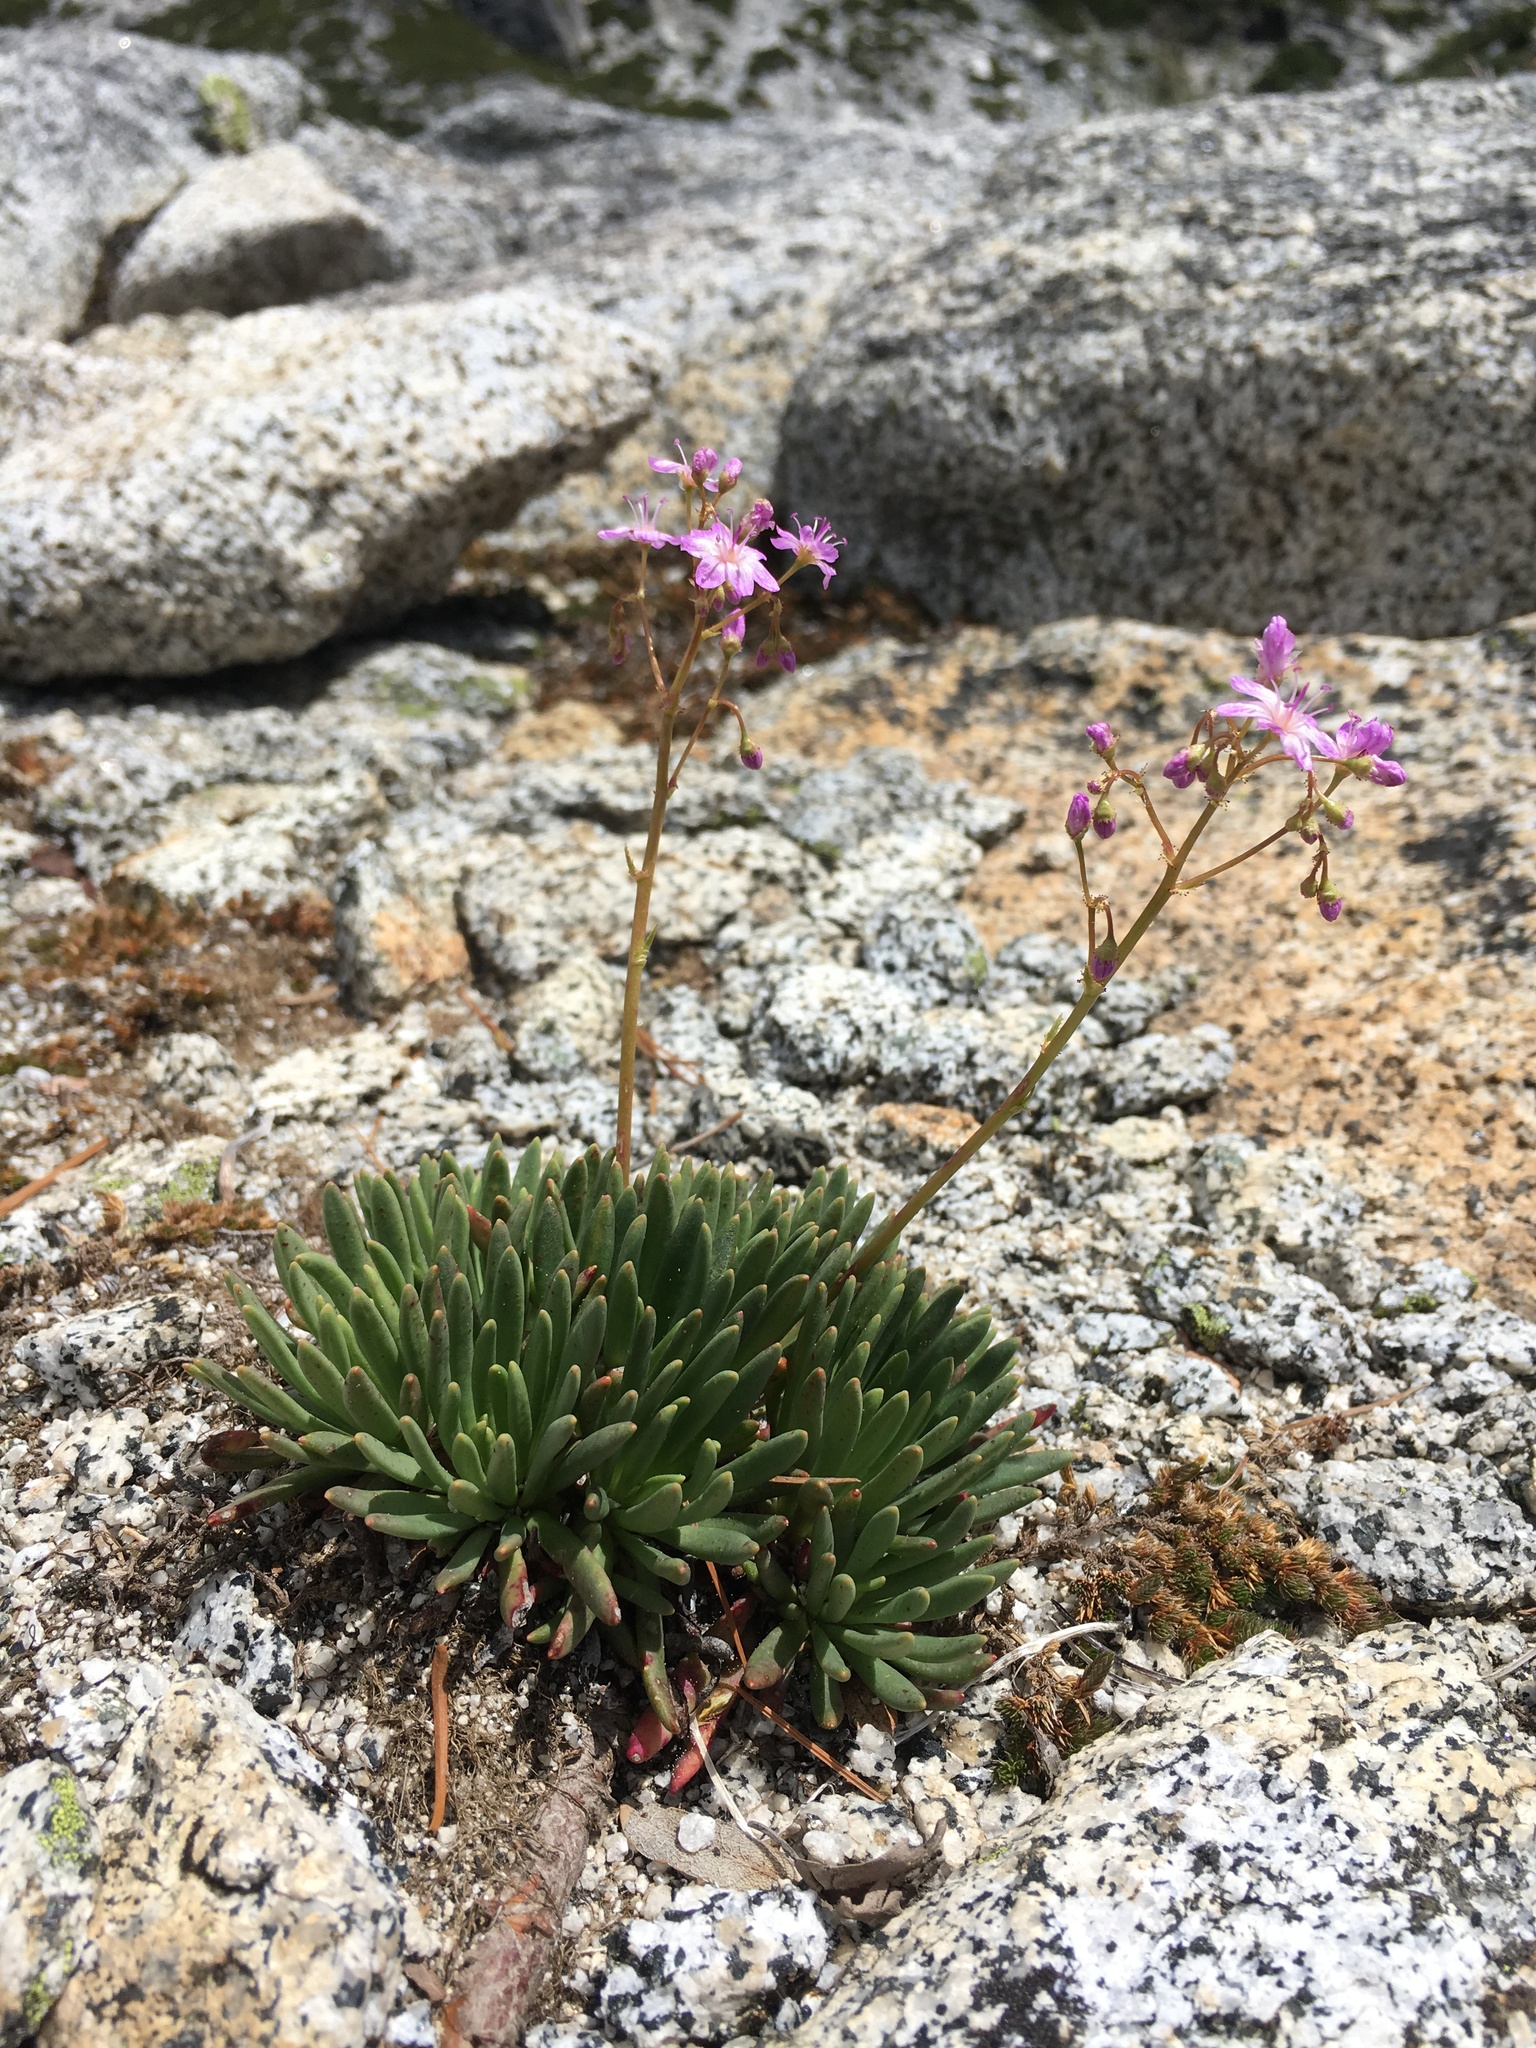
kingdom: Plantae
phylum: Tracheophyta
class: Magnoliopsida
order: Caryophyllales
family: Montiaceae
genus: Lewisia
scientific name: Lewisia leeana
